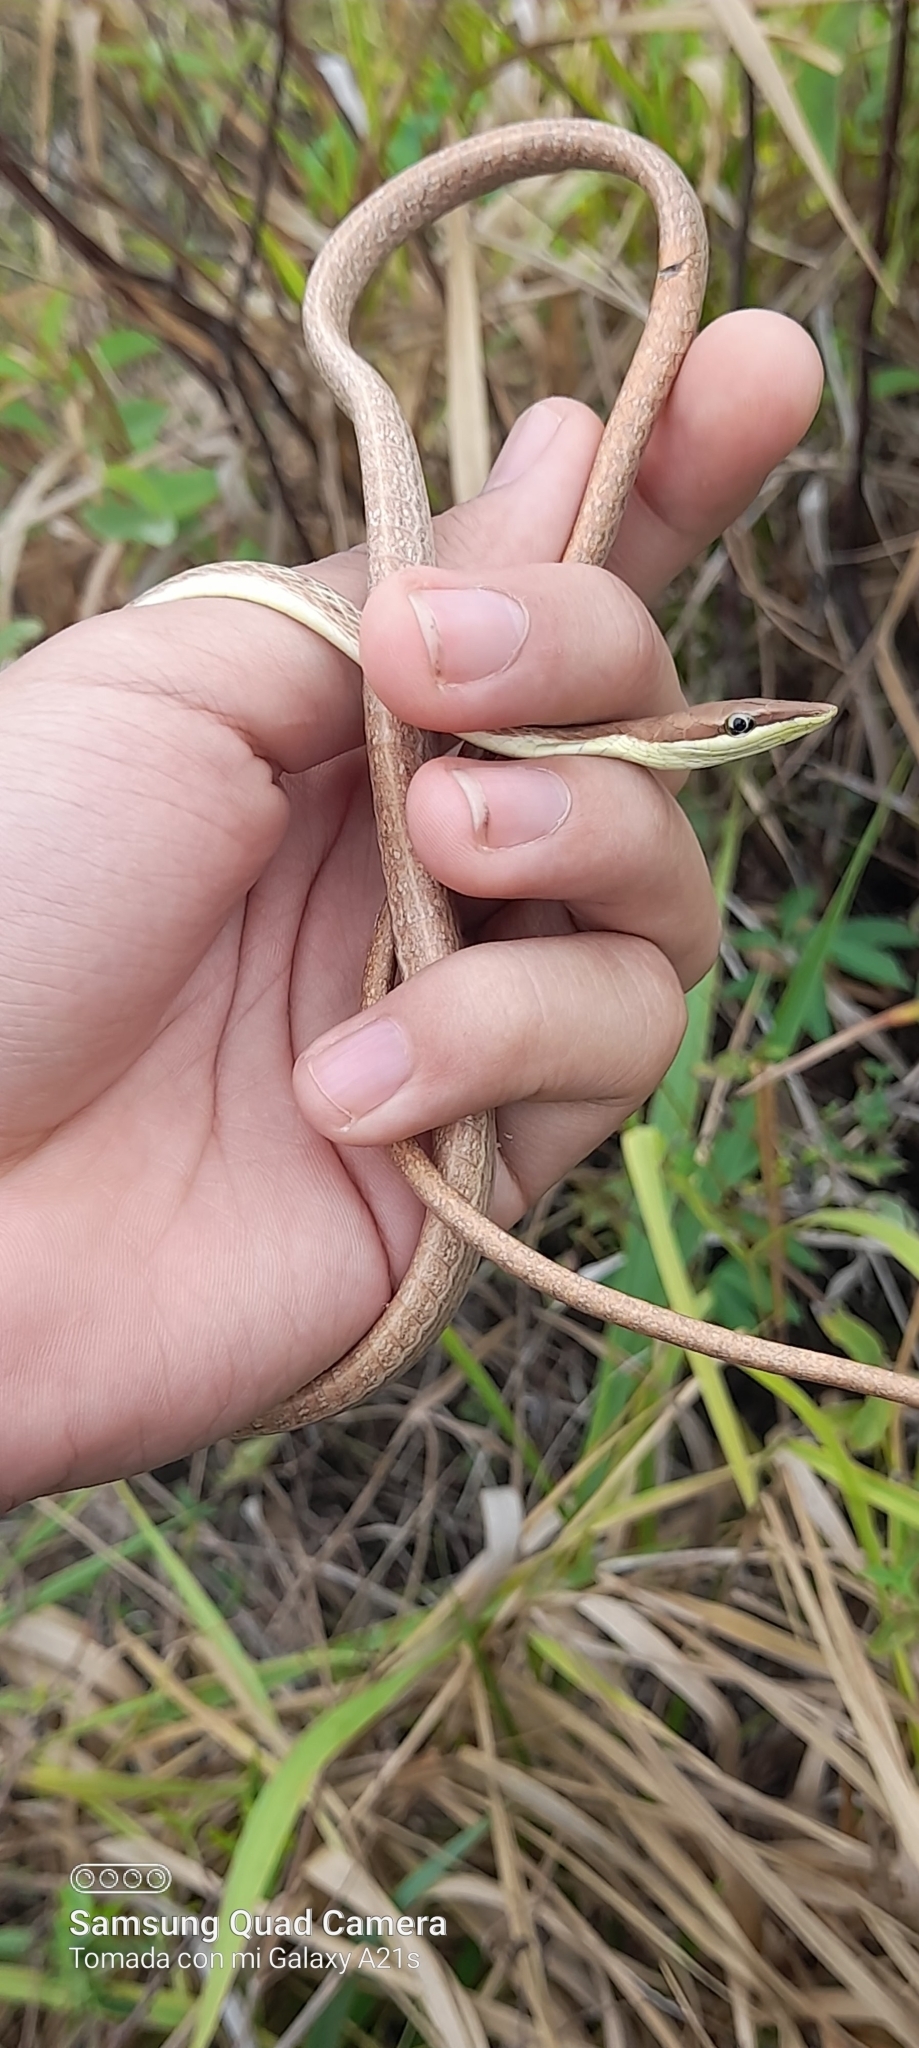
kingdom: Animalia
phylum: Chordata
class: Squamata
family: Colubridae
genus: Oxybelis
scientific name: Oxybelis vittatus
